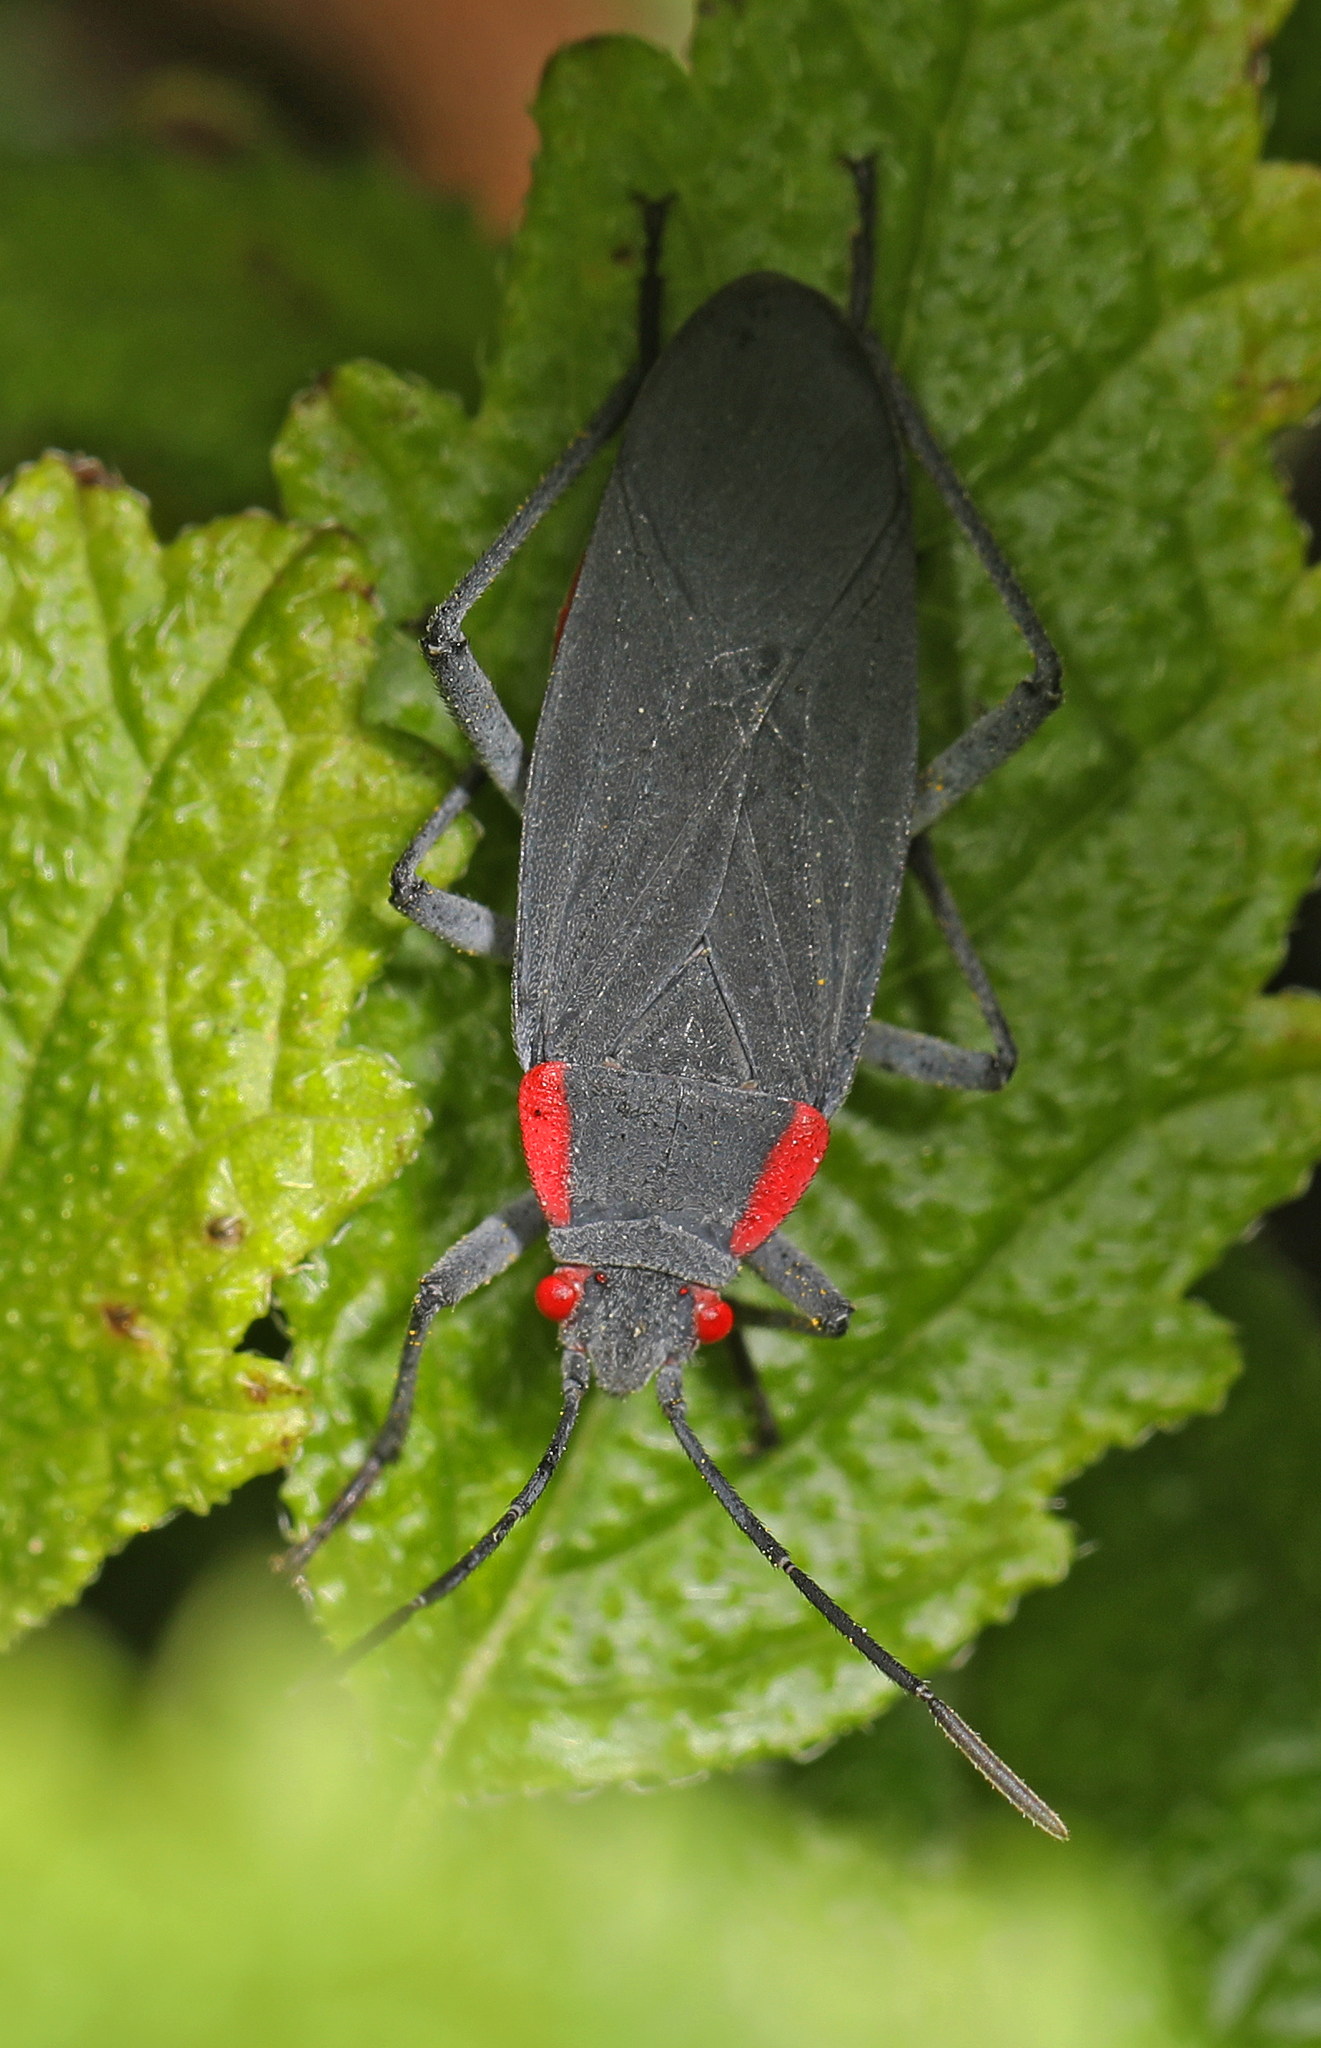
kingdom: Animalia
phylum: Arthropoda
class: Insecta
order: Hemiptera
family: Rhopalidae
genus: Jadera
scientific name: Jadera haematoloma
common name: Red-shouldered bug
